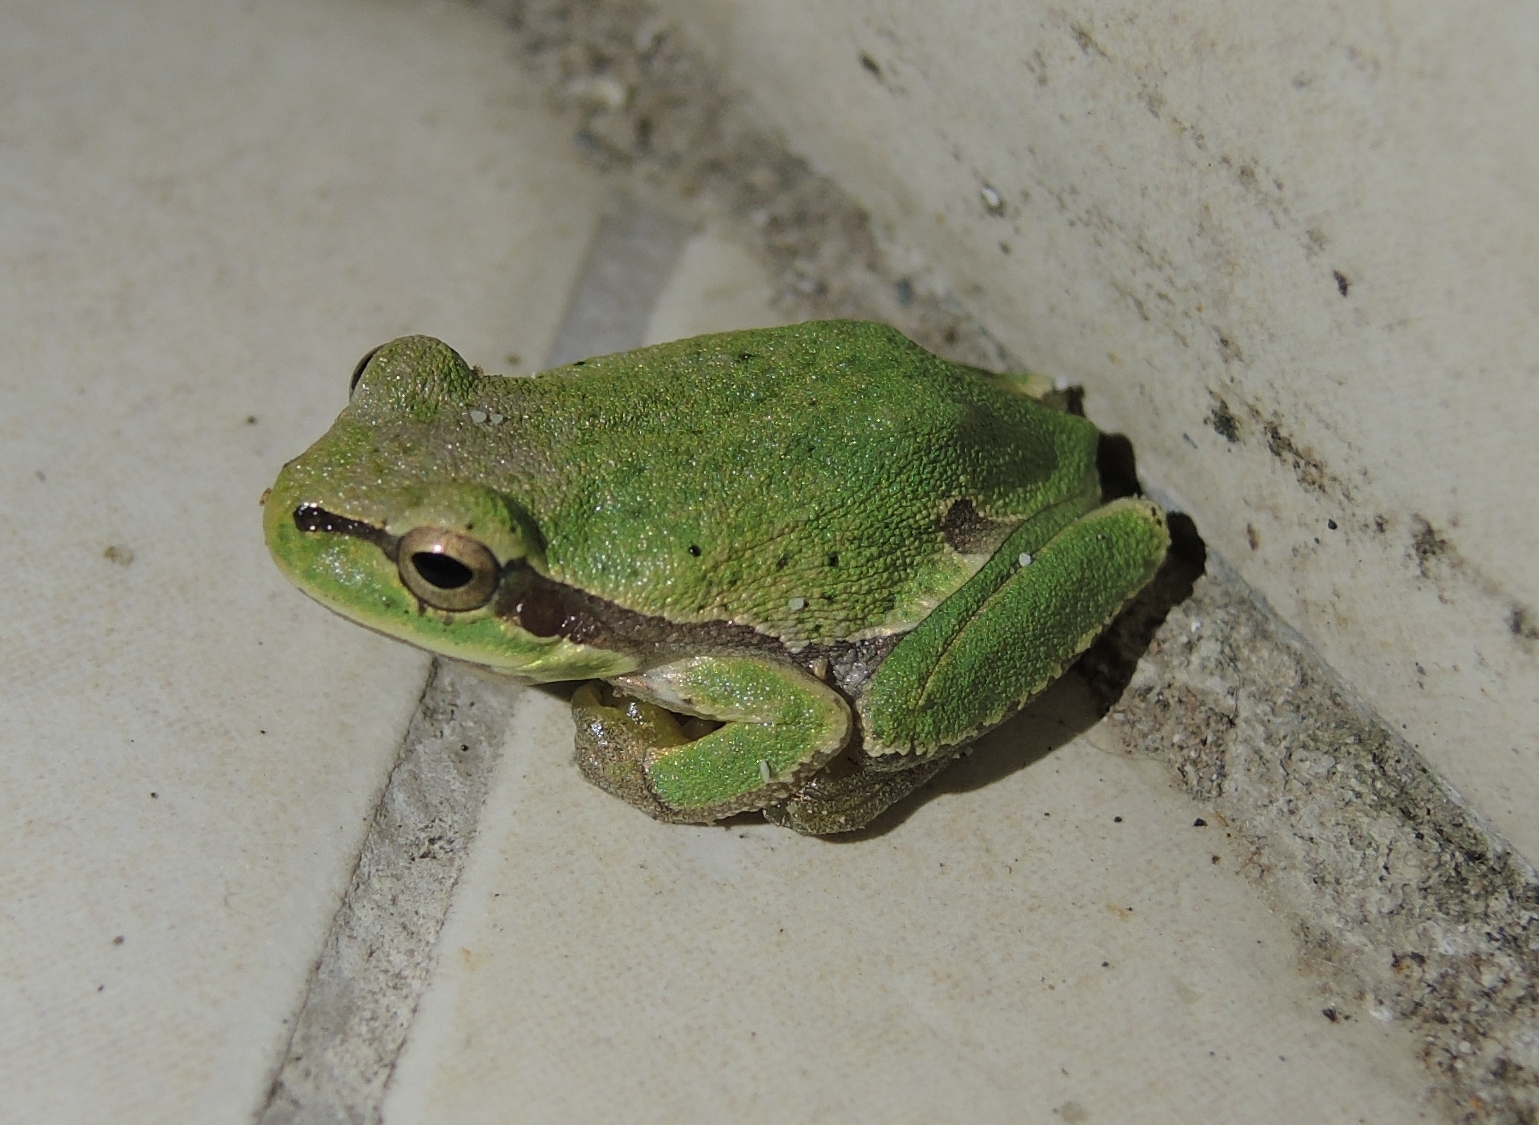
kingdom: Animalia
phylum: Chordata
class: Amphibia
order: Anura
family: Hylidae
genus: Hyla
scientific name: Hyla orientalis
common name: Caucasian treefrog
